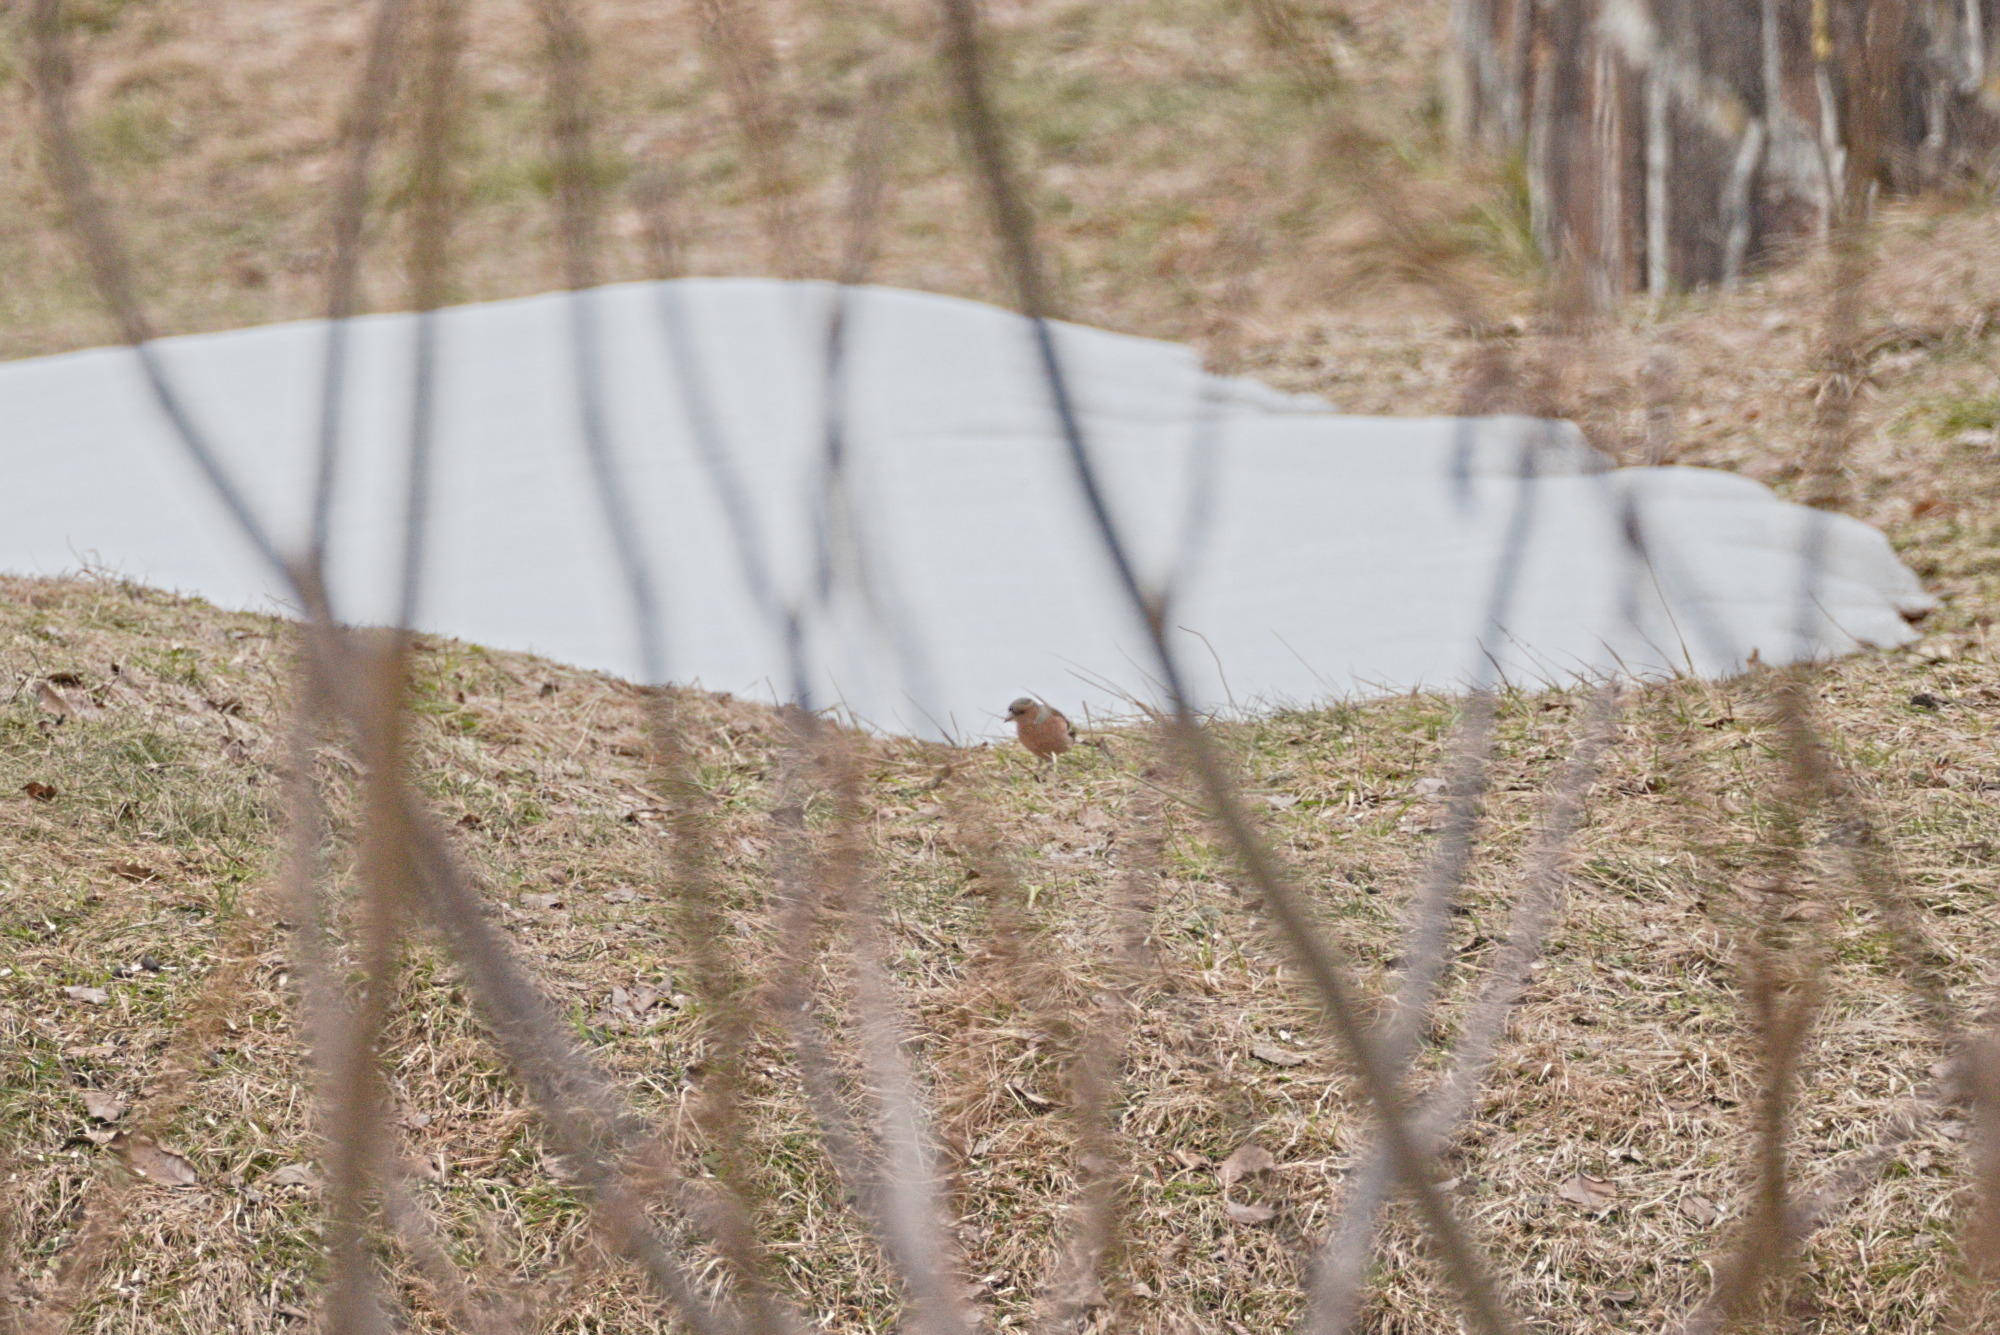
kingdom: Animalia
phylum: Chordata
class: Aves
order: Passeriformes
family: Fringillidae
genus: Fringilla
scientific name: Fringilla coelebs
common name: Common chaffinch
